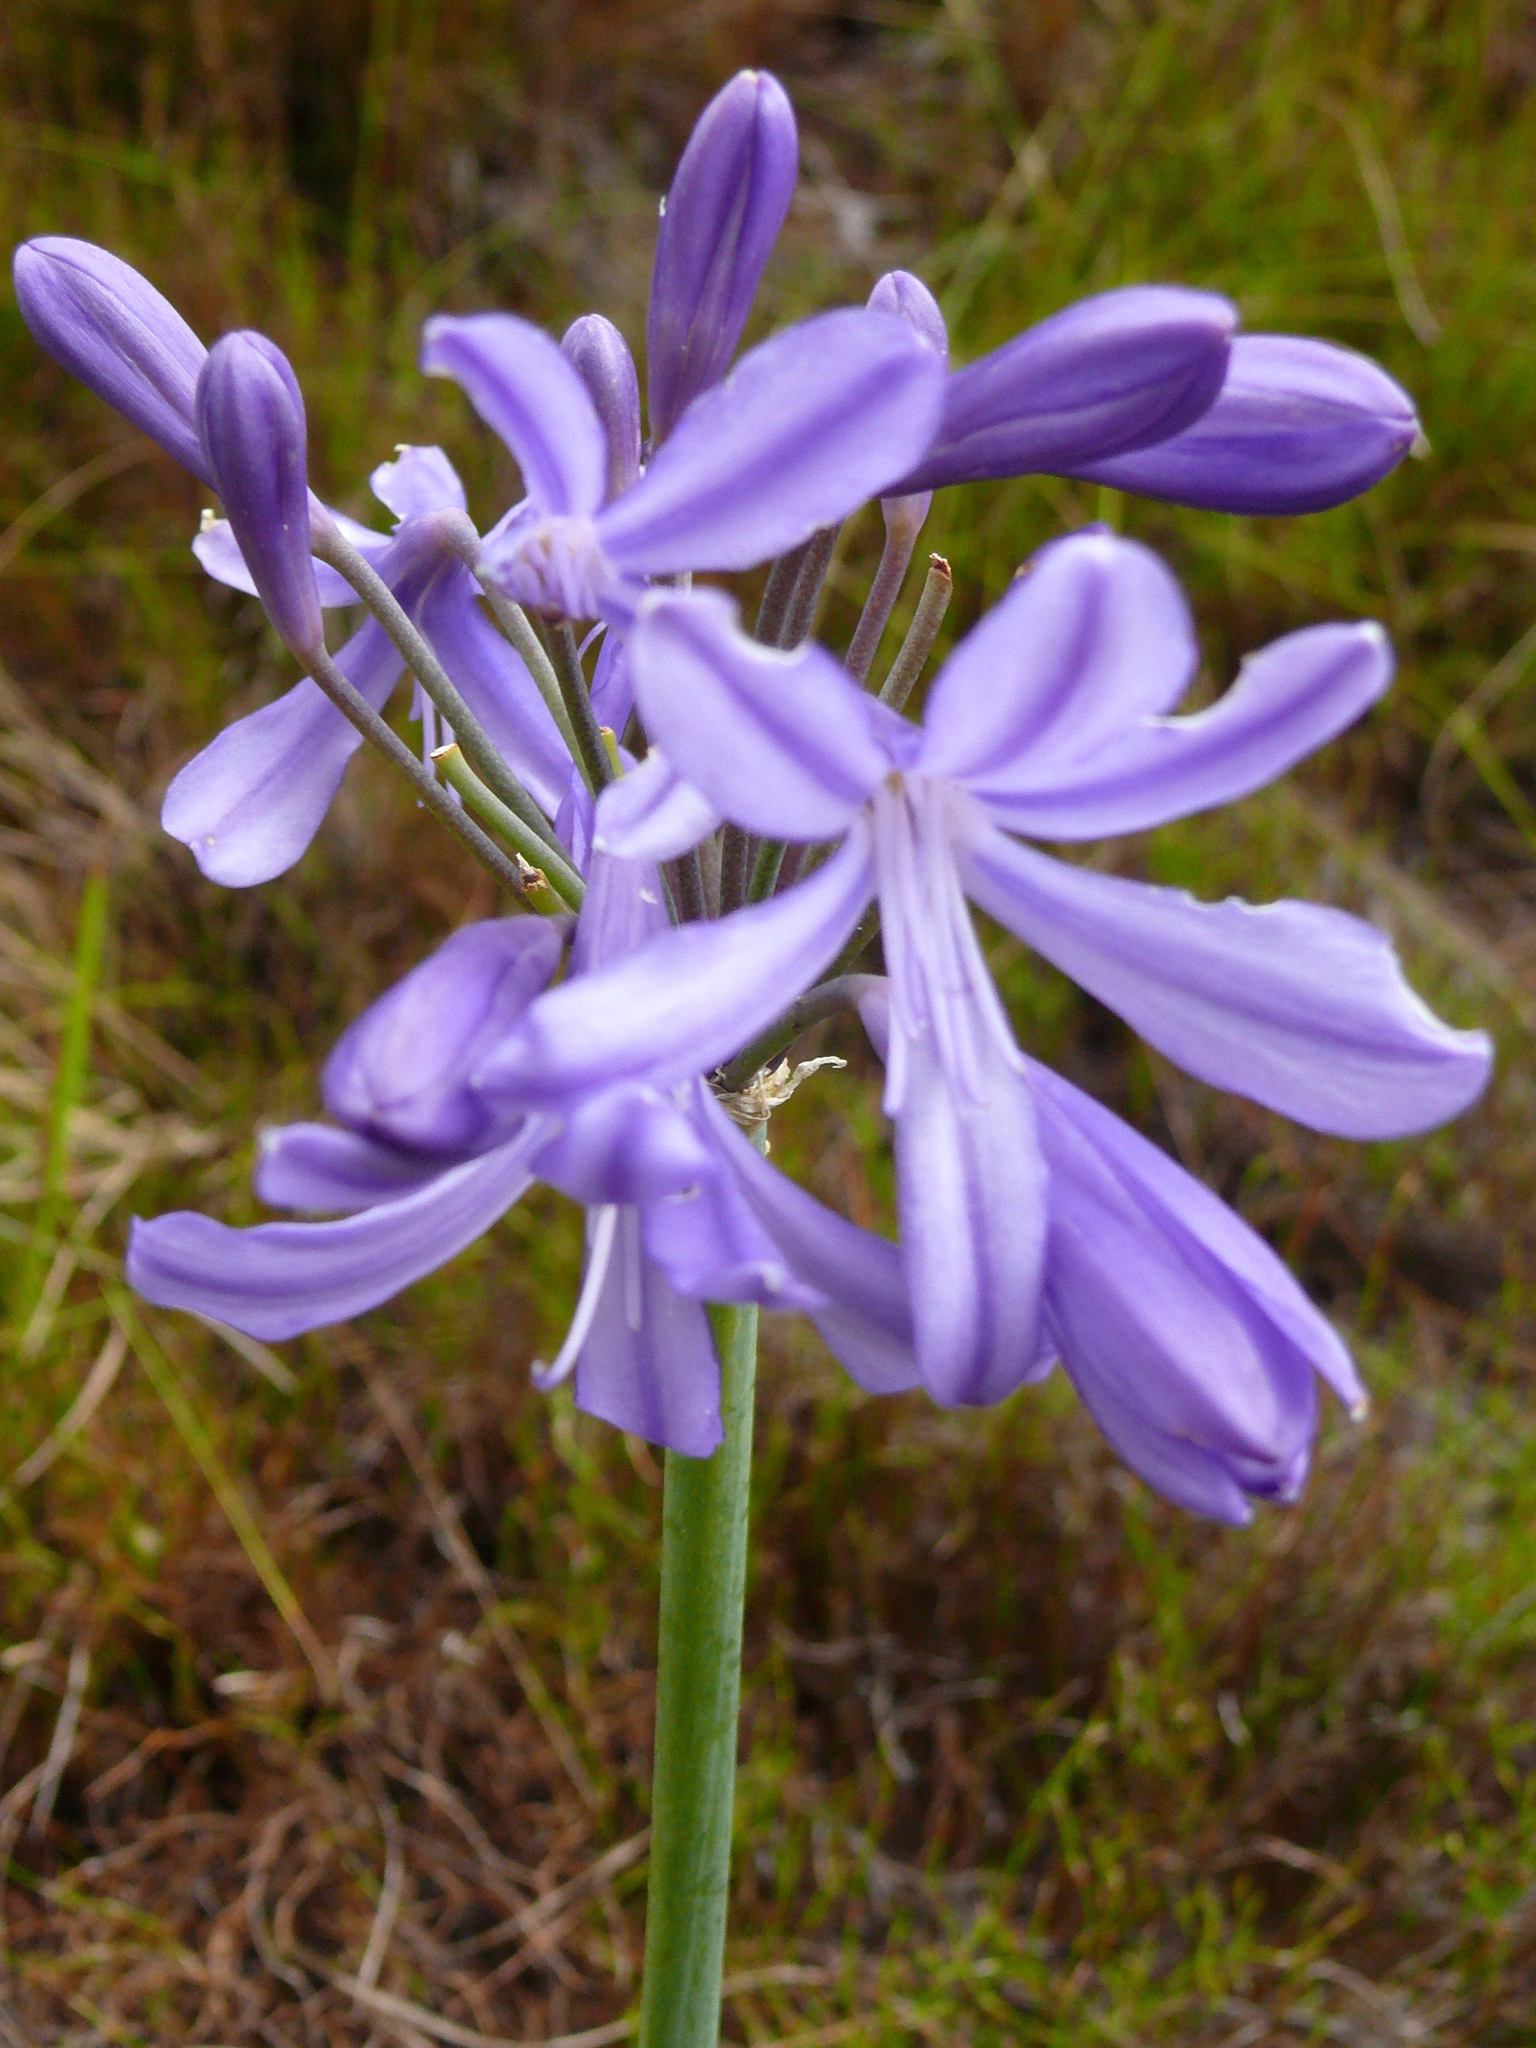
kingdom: Plantae
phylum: Tracheophyta
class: Liliopsida
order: Asparagales
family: Amaryllidaceae
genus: Agapanthus
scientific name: Agapanthus
